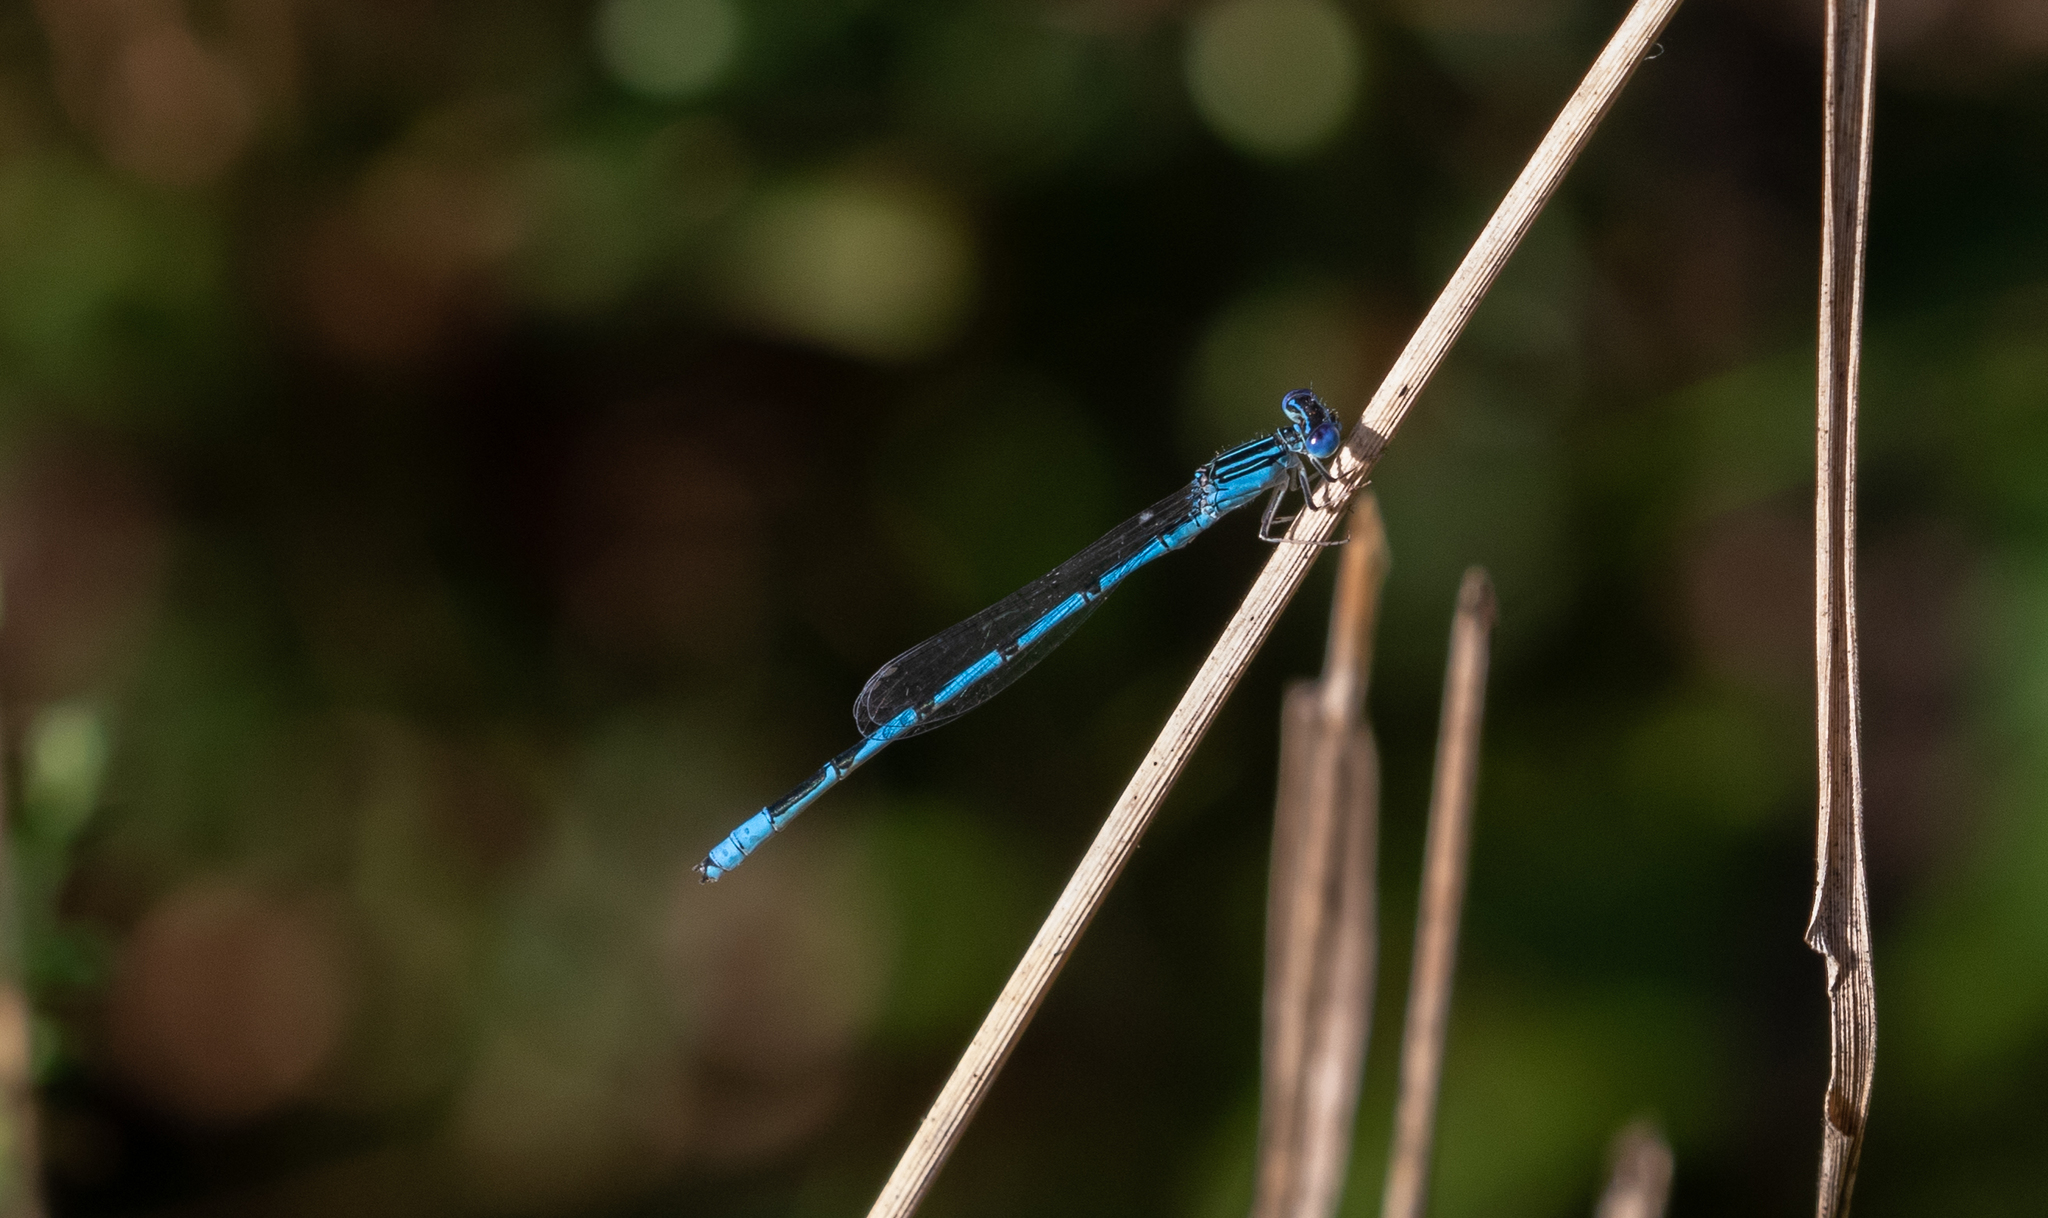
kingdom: Animalia
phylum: Arthropoda
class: Insecta
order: Odonata
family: Coenagrionidae
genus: Enallagma
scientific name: Enallagma basidens
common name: Double-striped bluet
